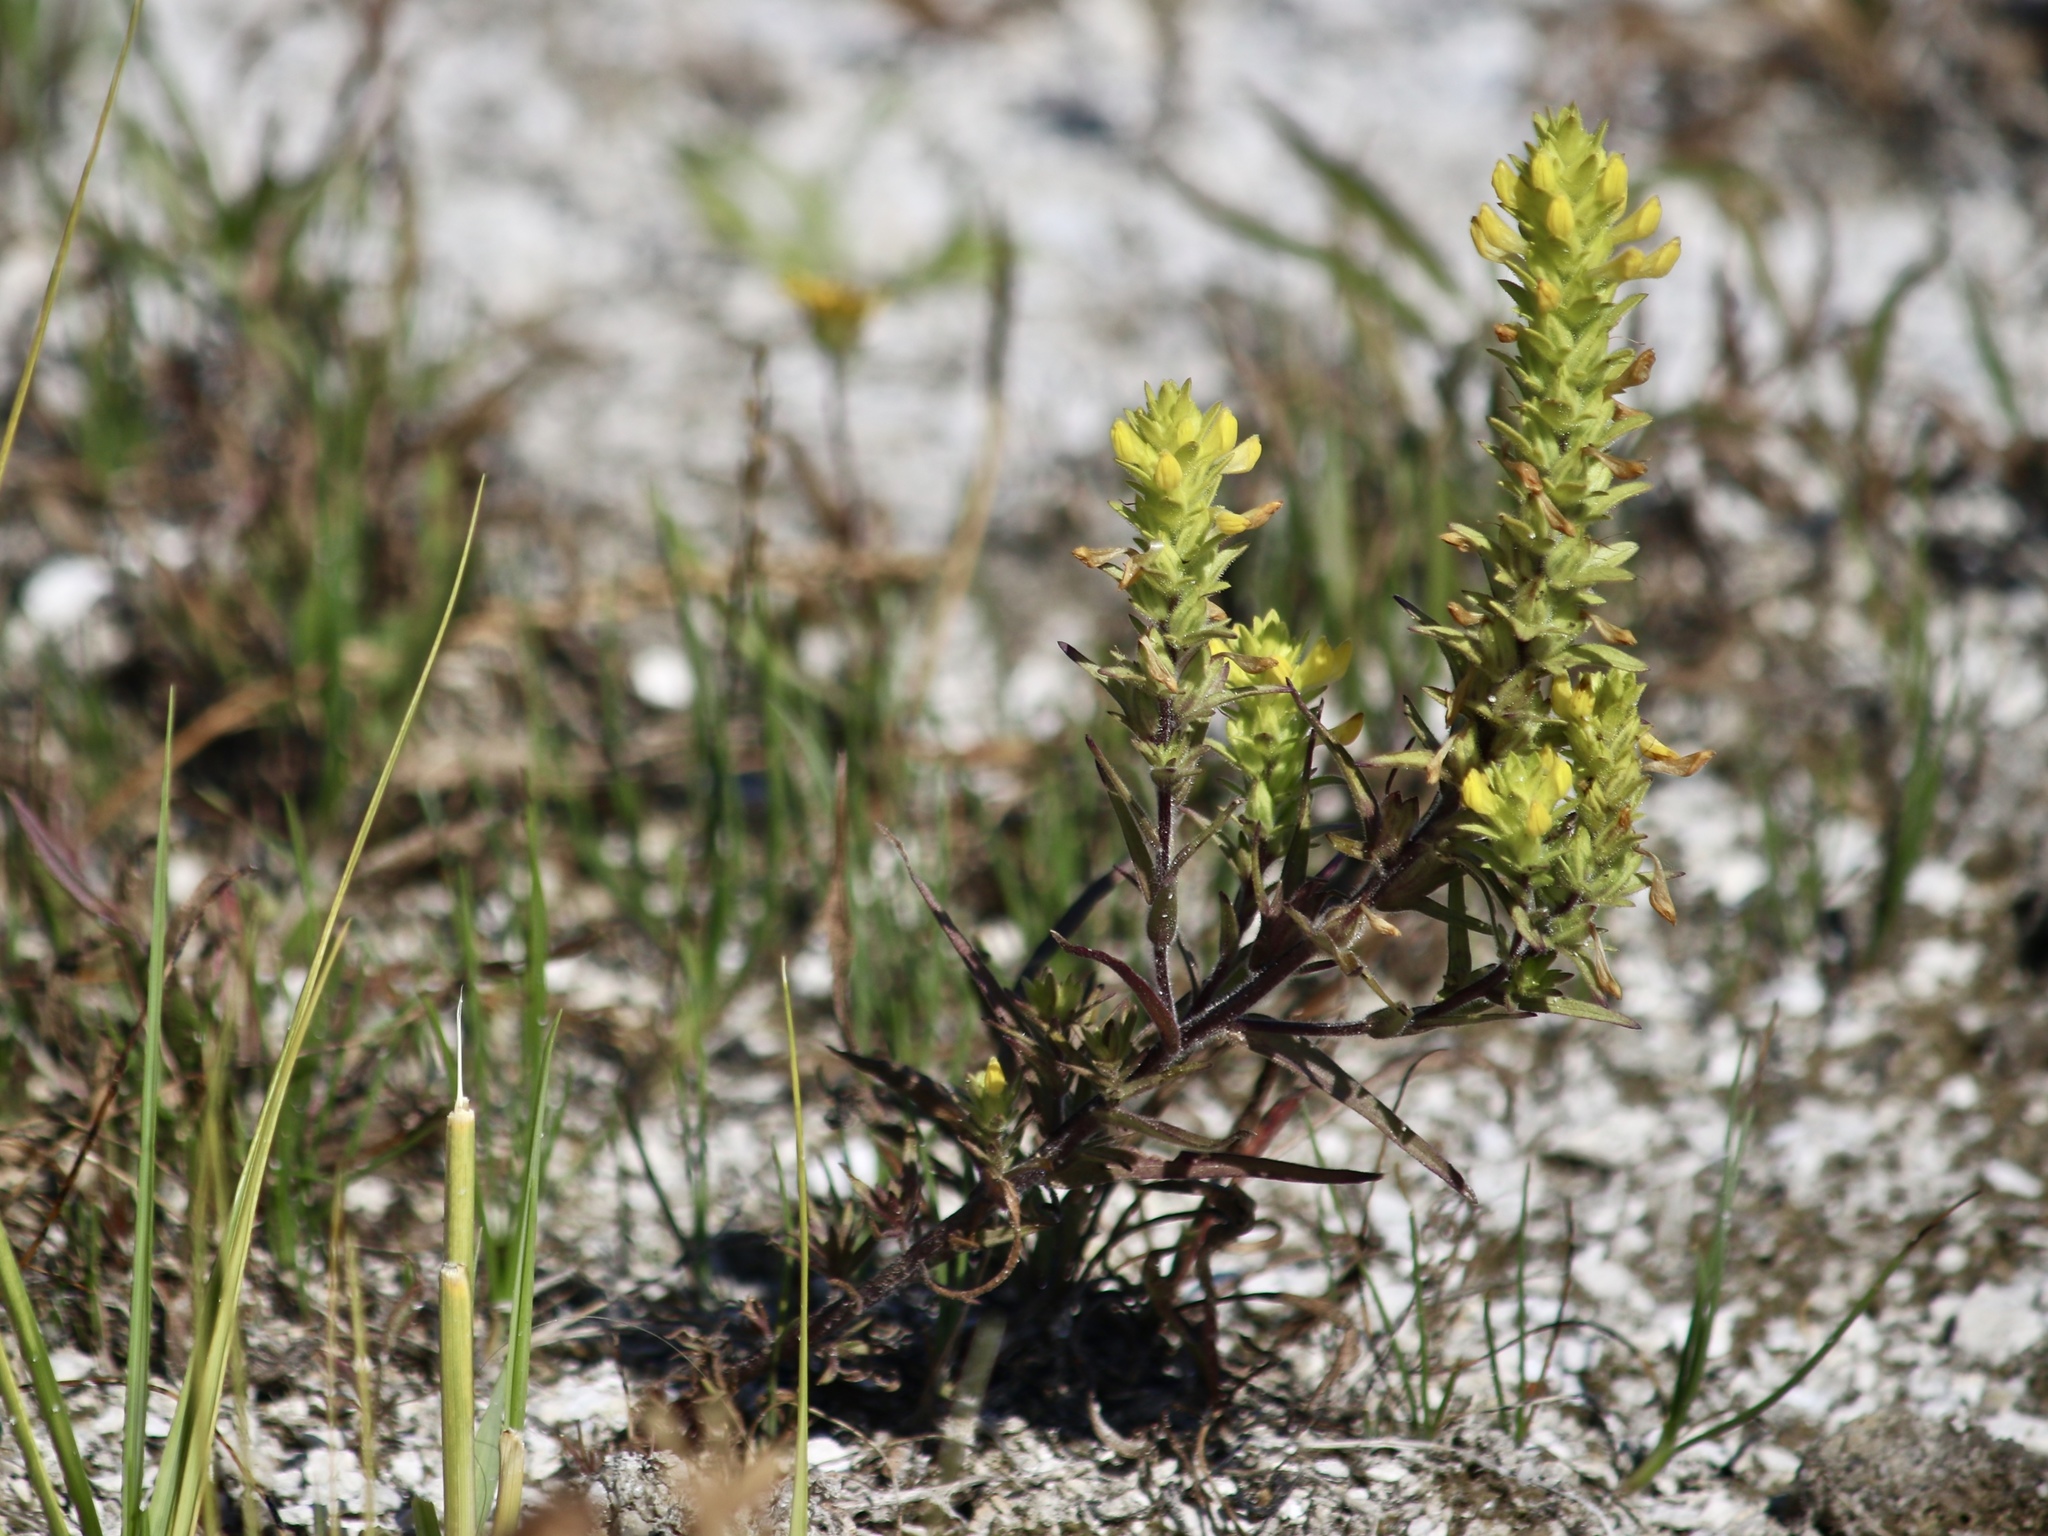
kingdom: Plantae
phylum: Tracheophyta
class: Magnoliopsida
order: Lamiales
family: Orobanchaceae
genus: Orthocarpus
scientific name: Orthocarpus luteus
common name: Golden-tongue owl's-clover
